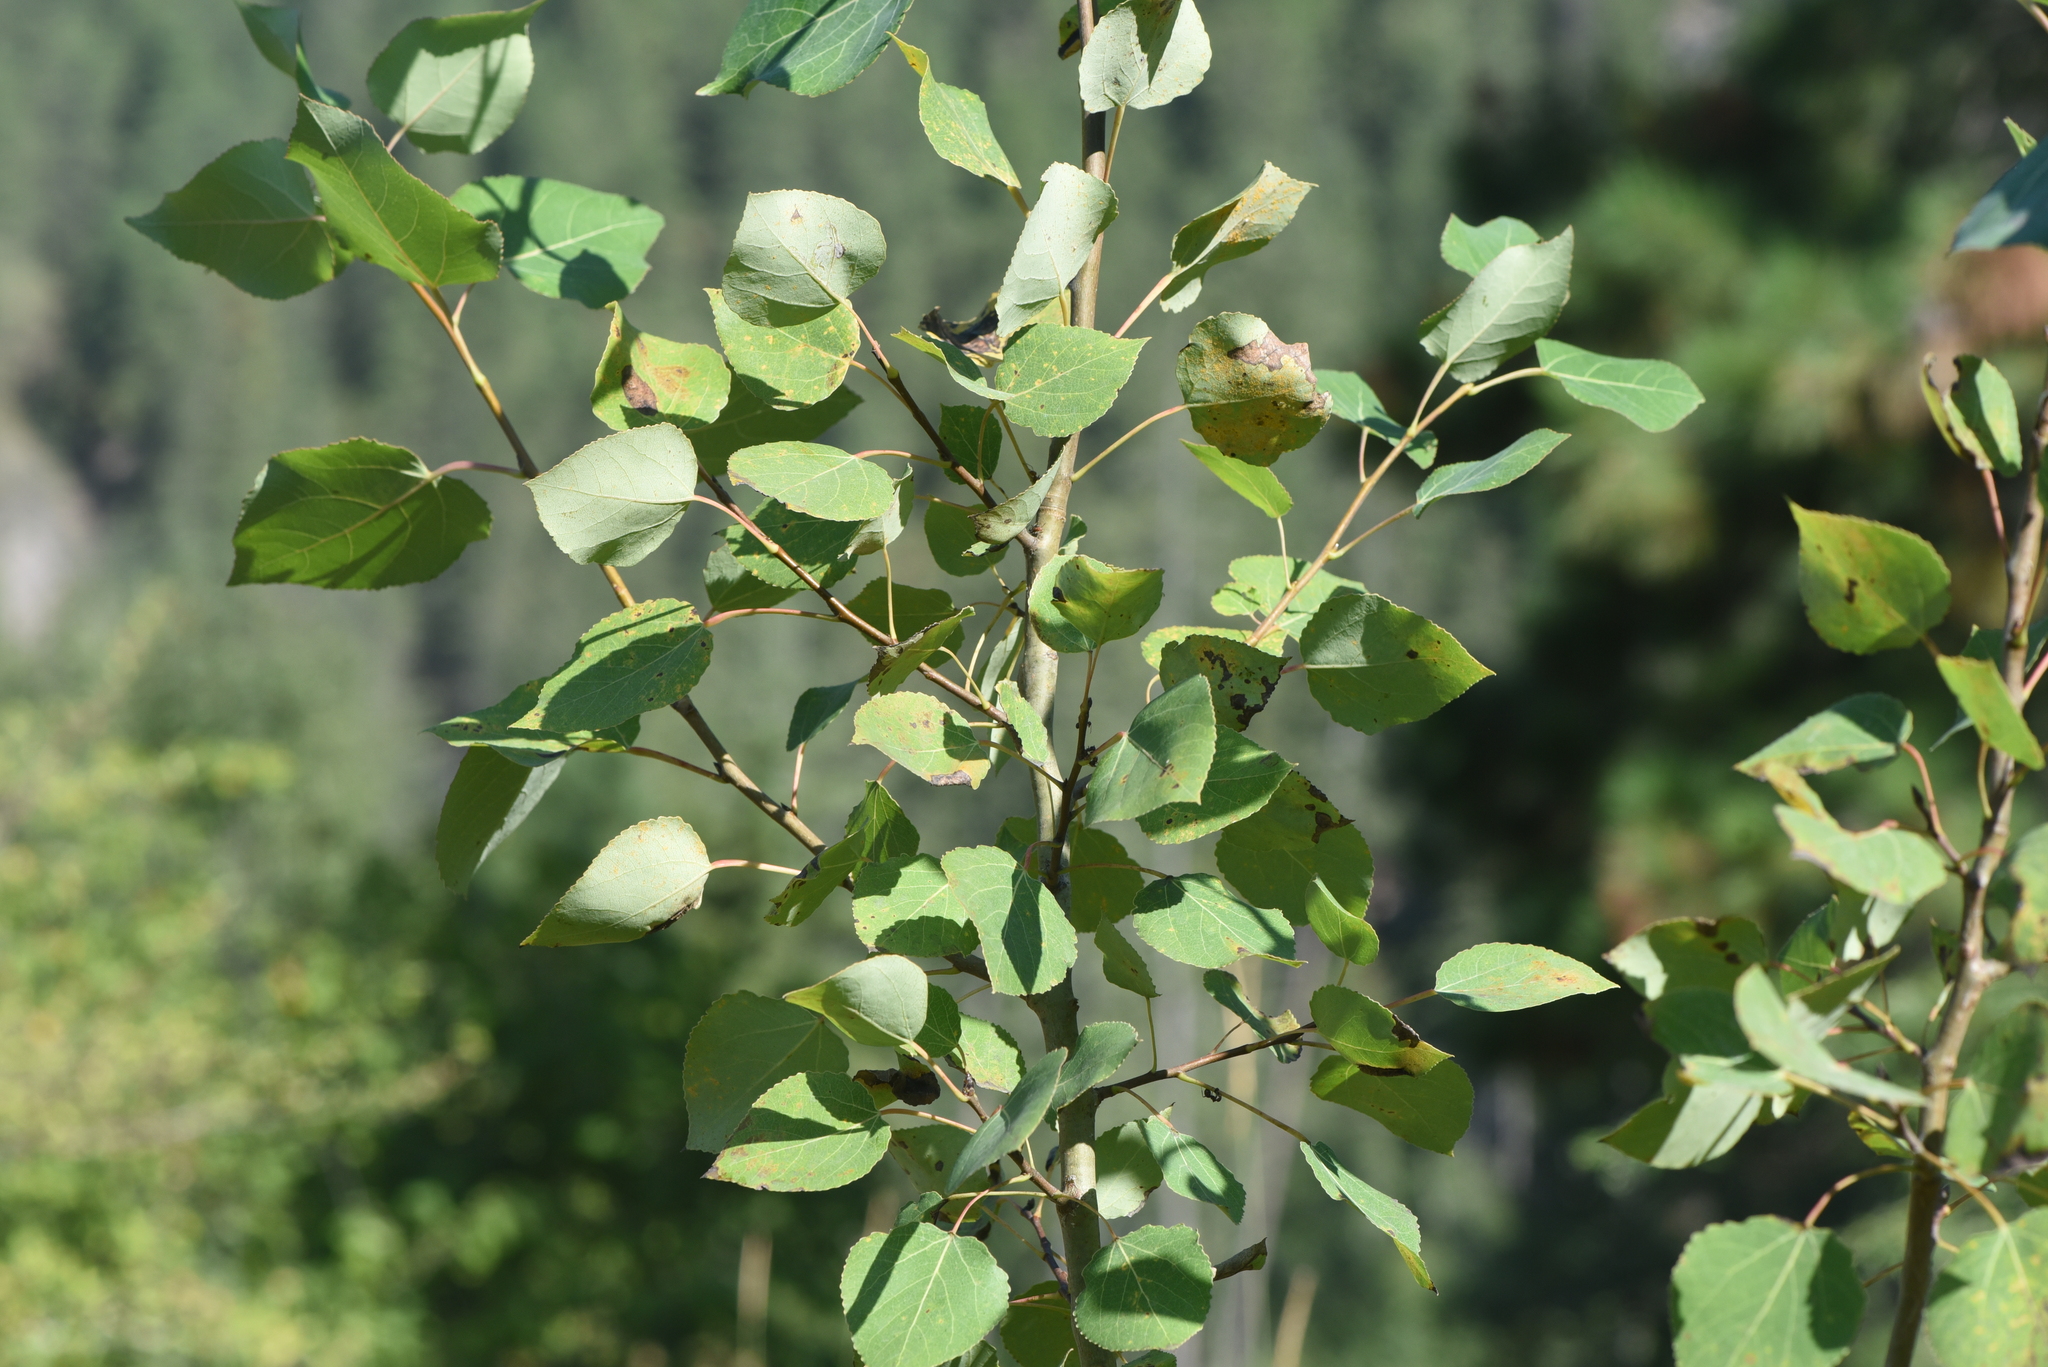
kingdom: Plantae
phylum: Tracheophyta
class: Magnoliopsida
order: Malpighiales
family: Salicaceae
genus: Populus
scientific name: Populus tremuloides
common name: Quaking aspen
